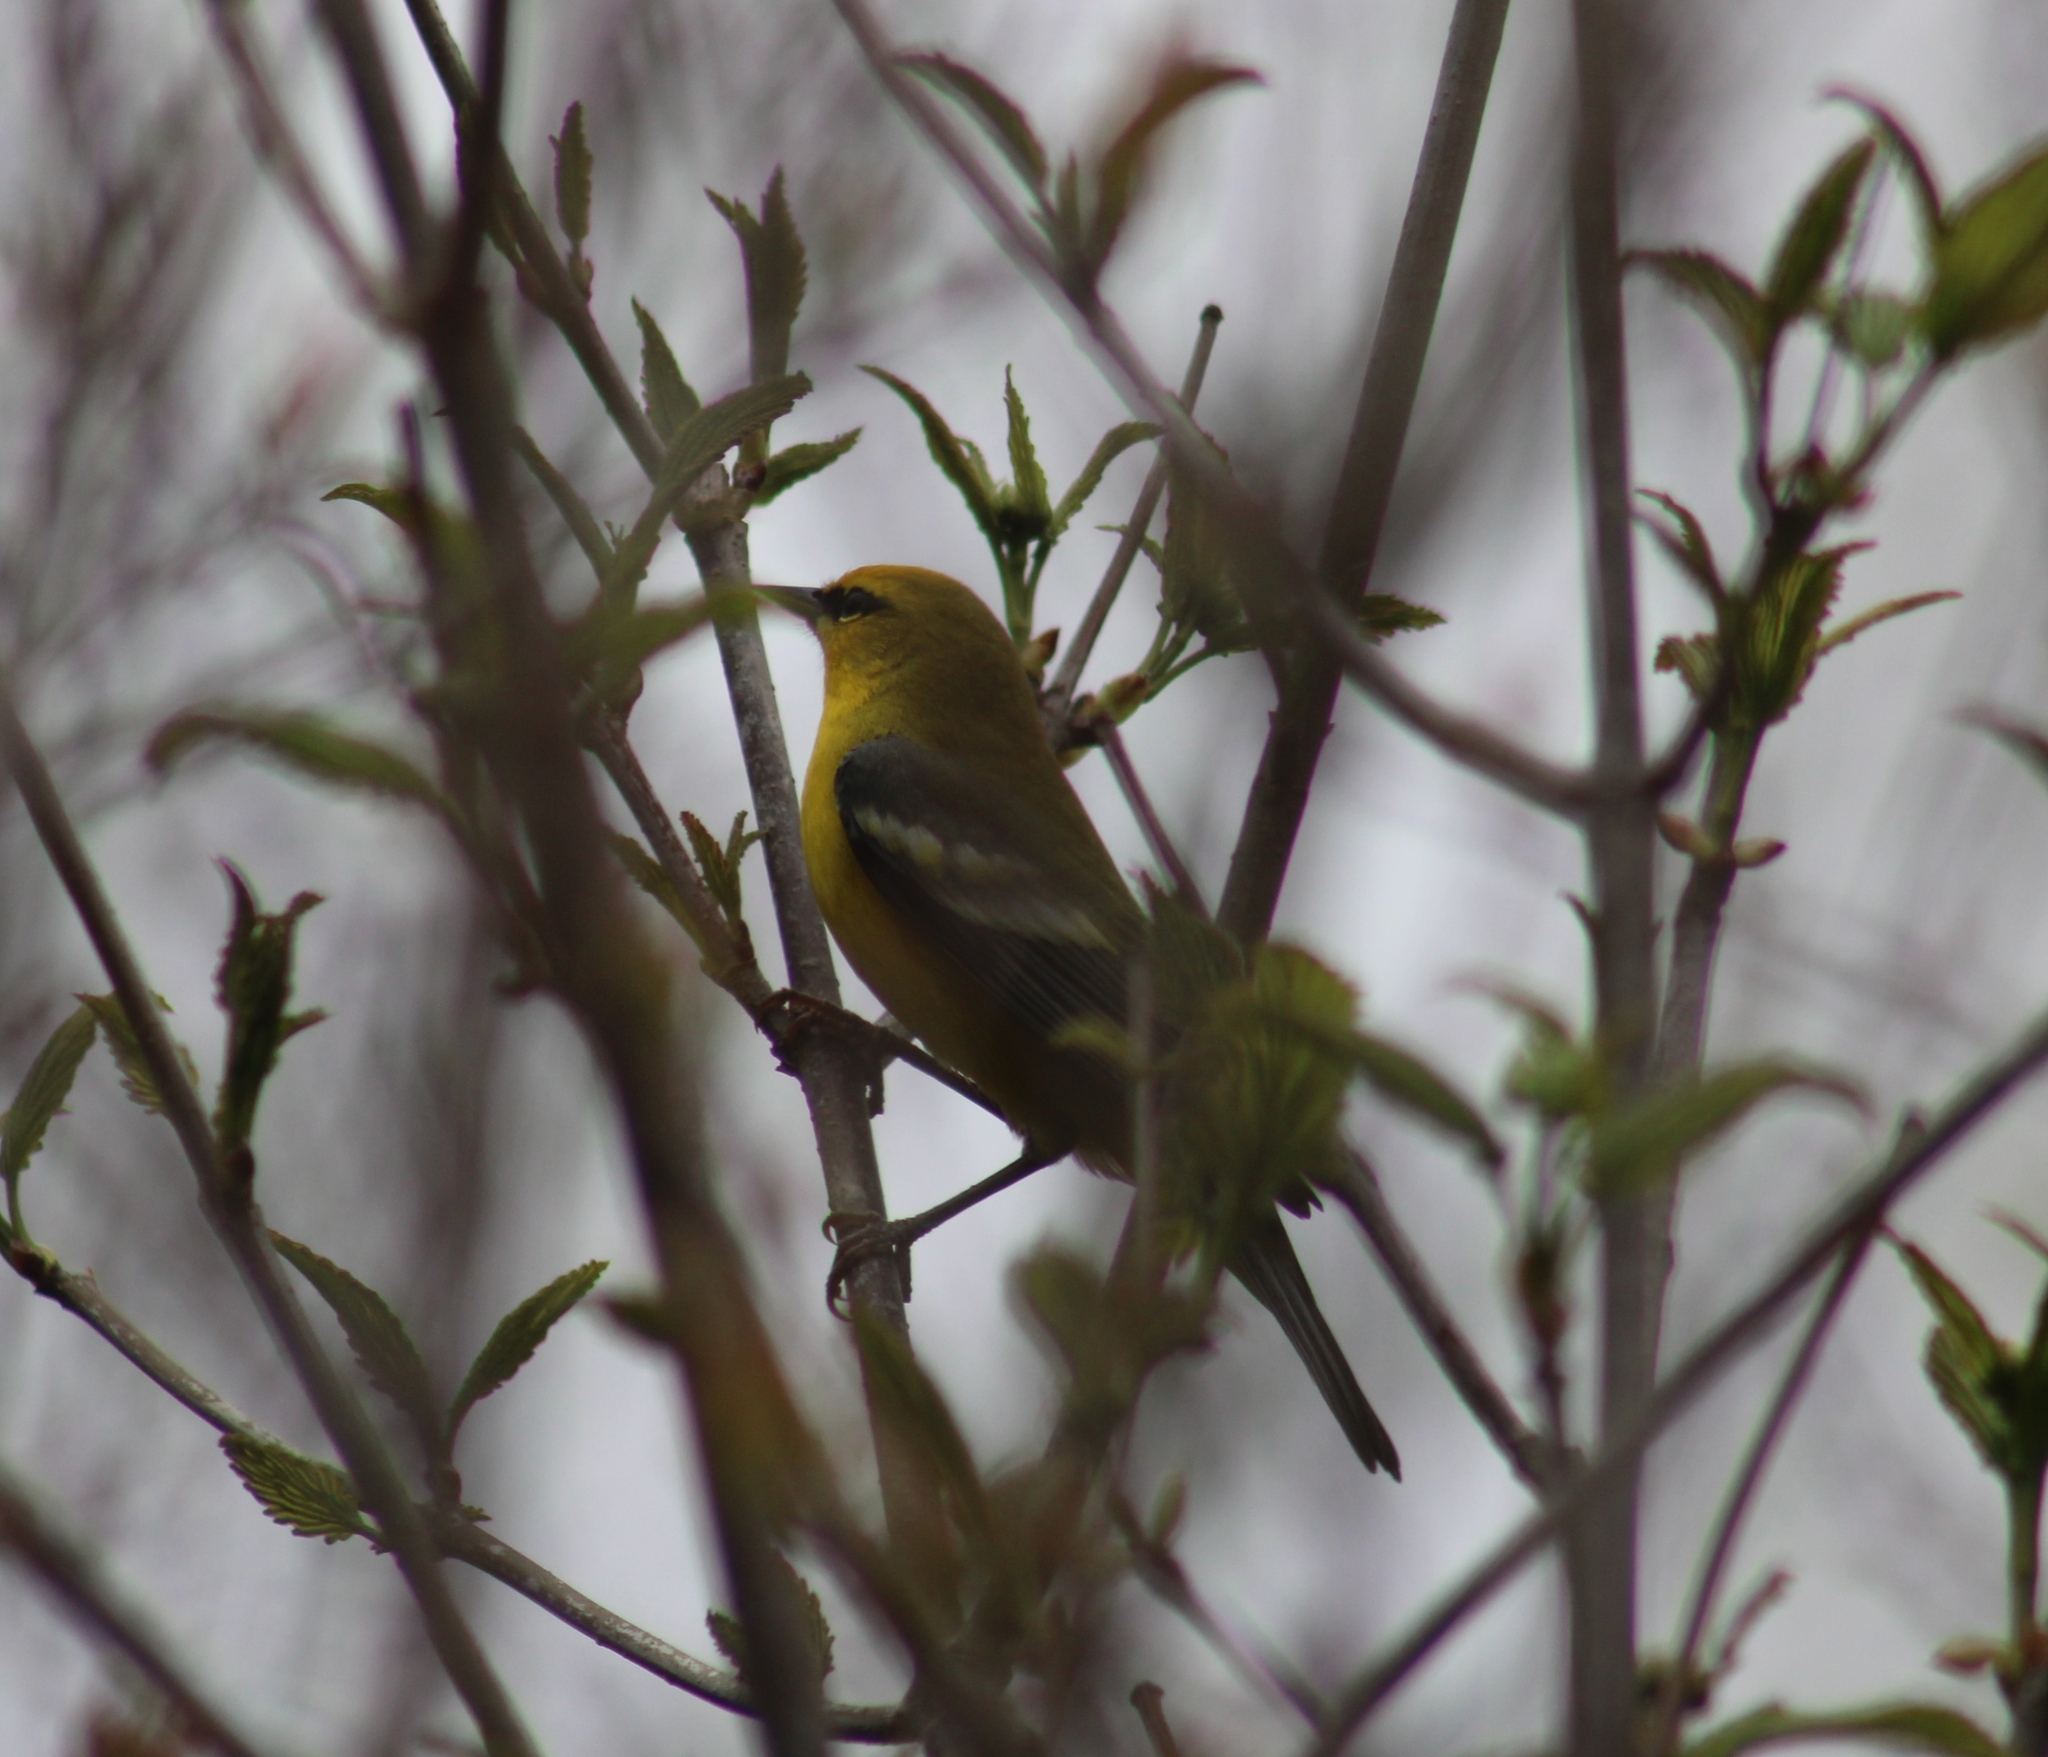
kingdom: Animalia
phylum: Chordata
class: Aves
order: Passeriformes
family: Parulidae
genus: Vermivora
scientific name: Vermivora cyanoptera
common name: Blue-winged warbler
